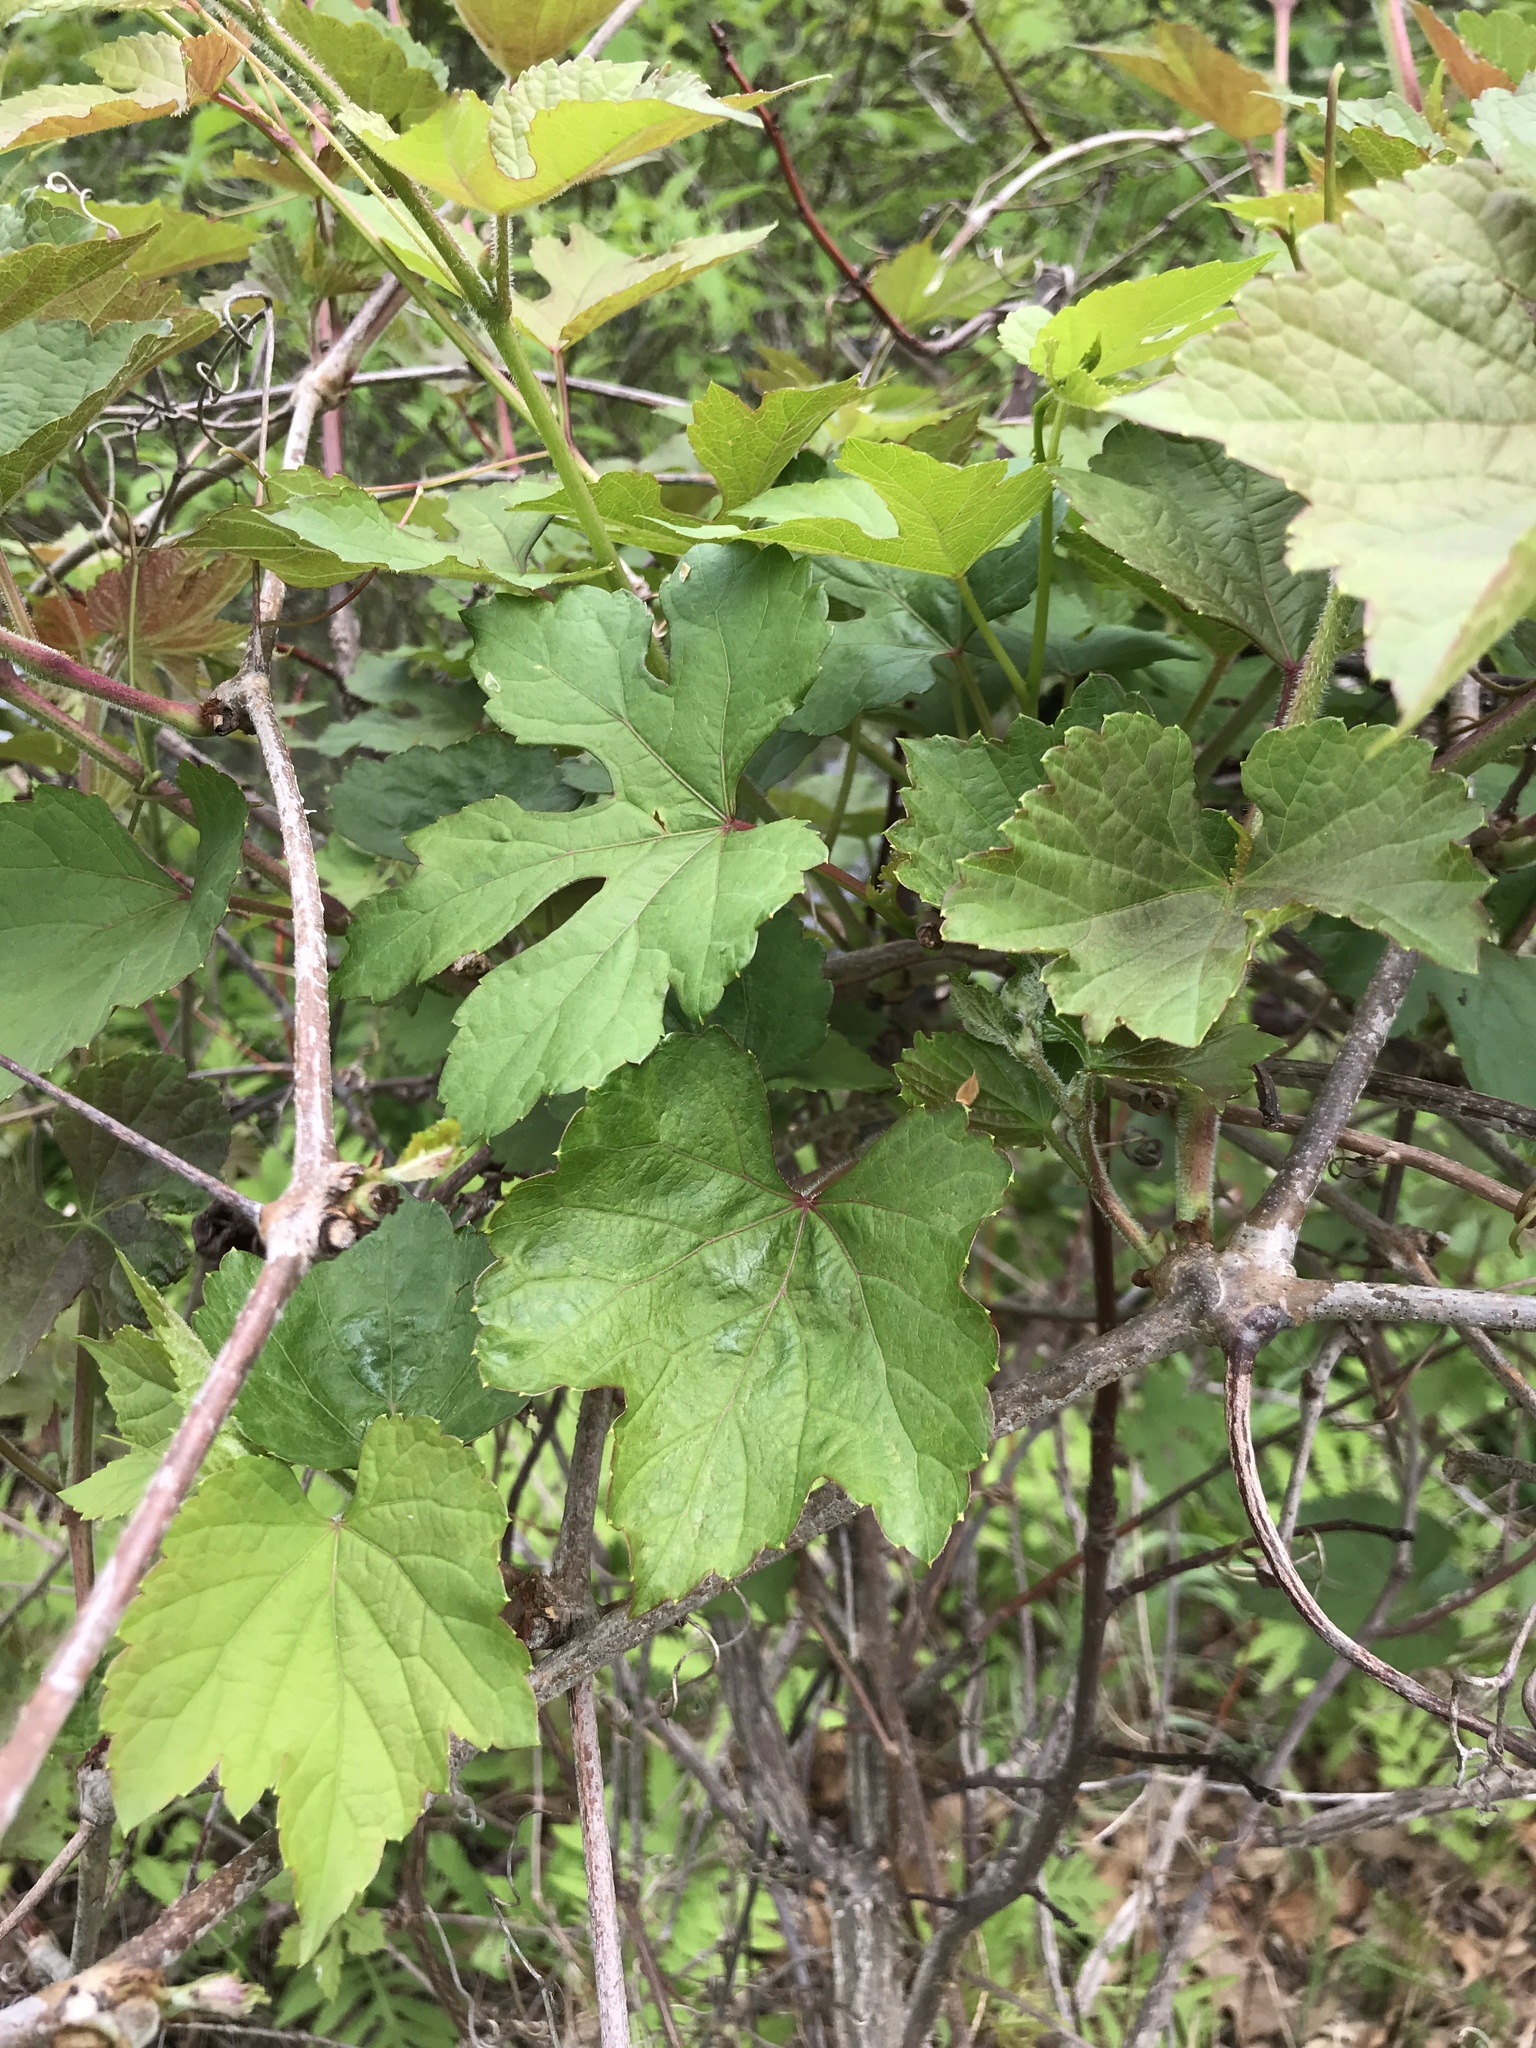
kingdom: Plantae
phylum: Tracheophyta
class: Magnoliopsida
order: Vitales
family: Vitaceae
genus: Ampelopsis
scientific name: Ampelopsis glandulosa
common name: Amur peppervine
